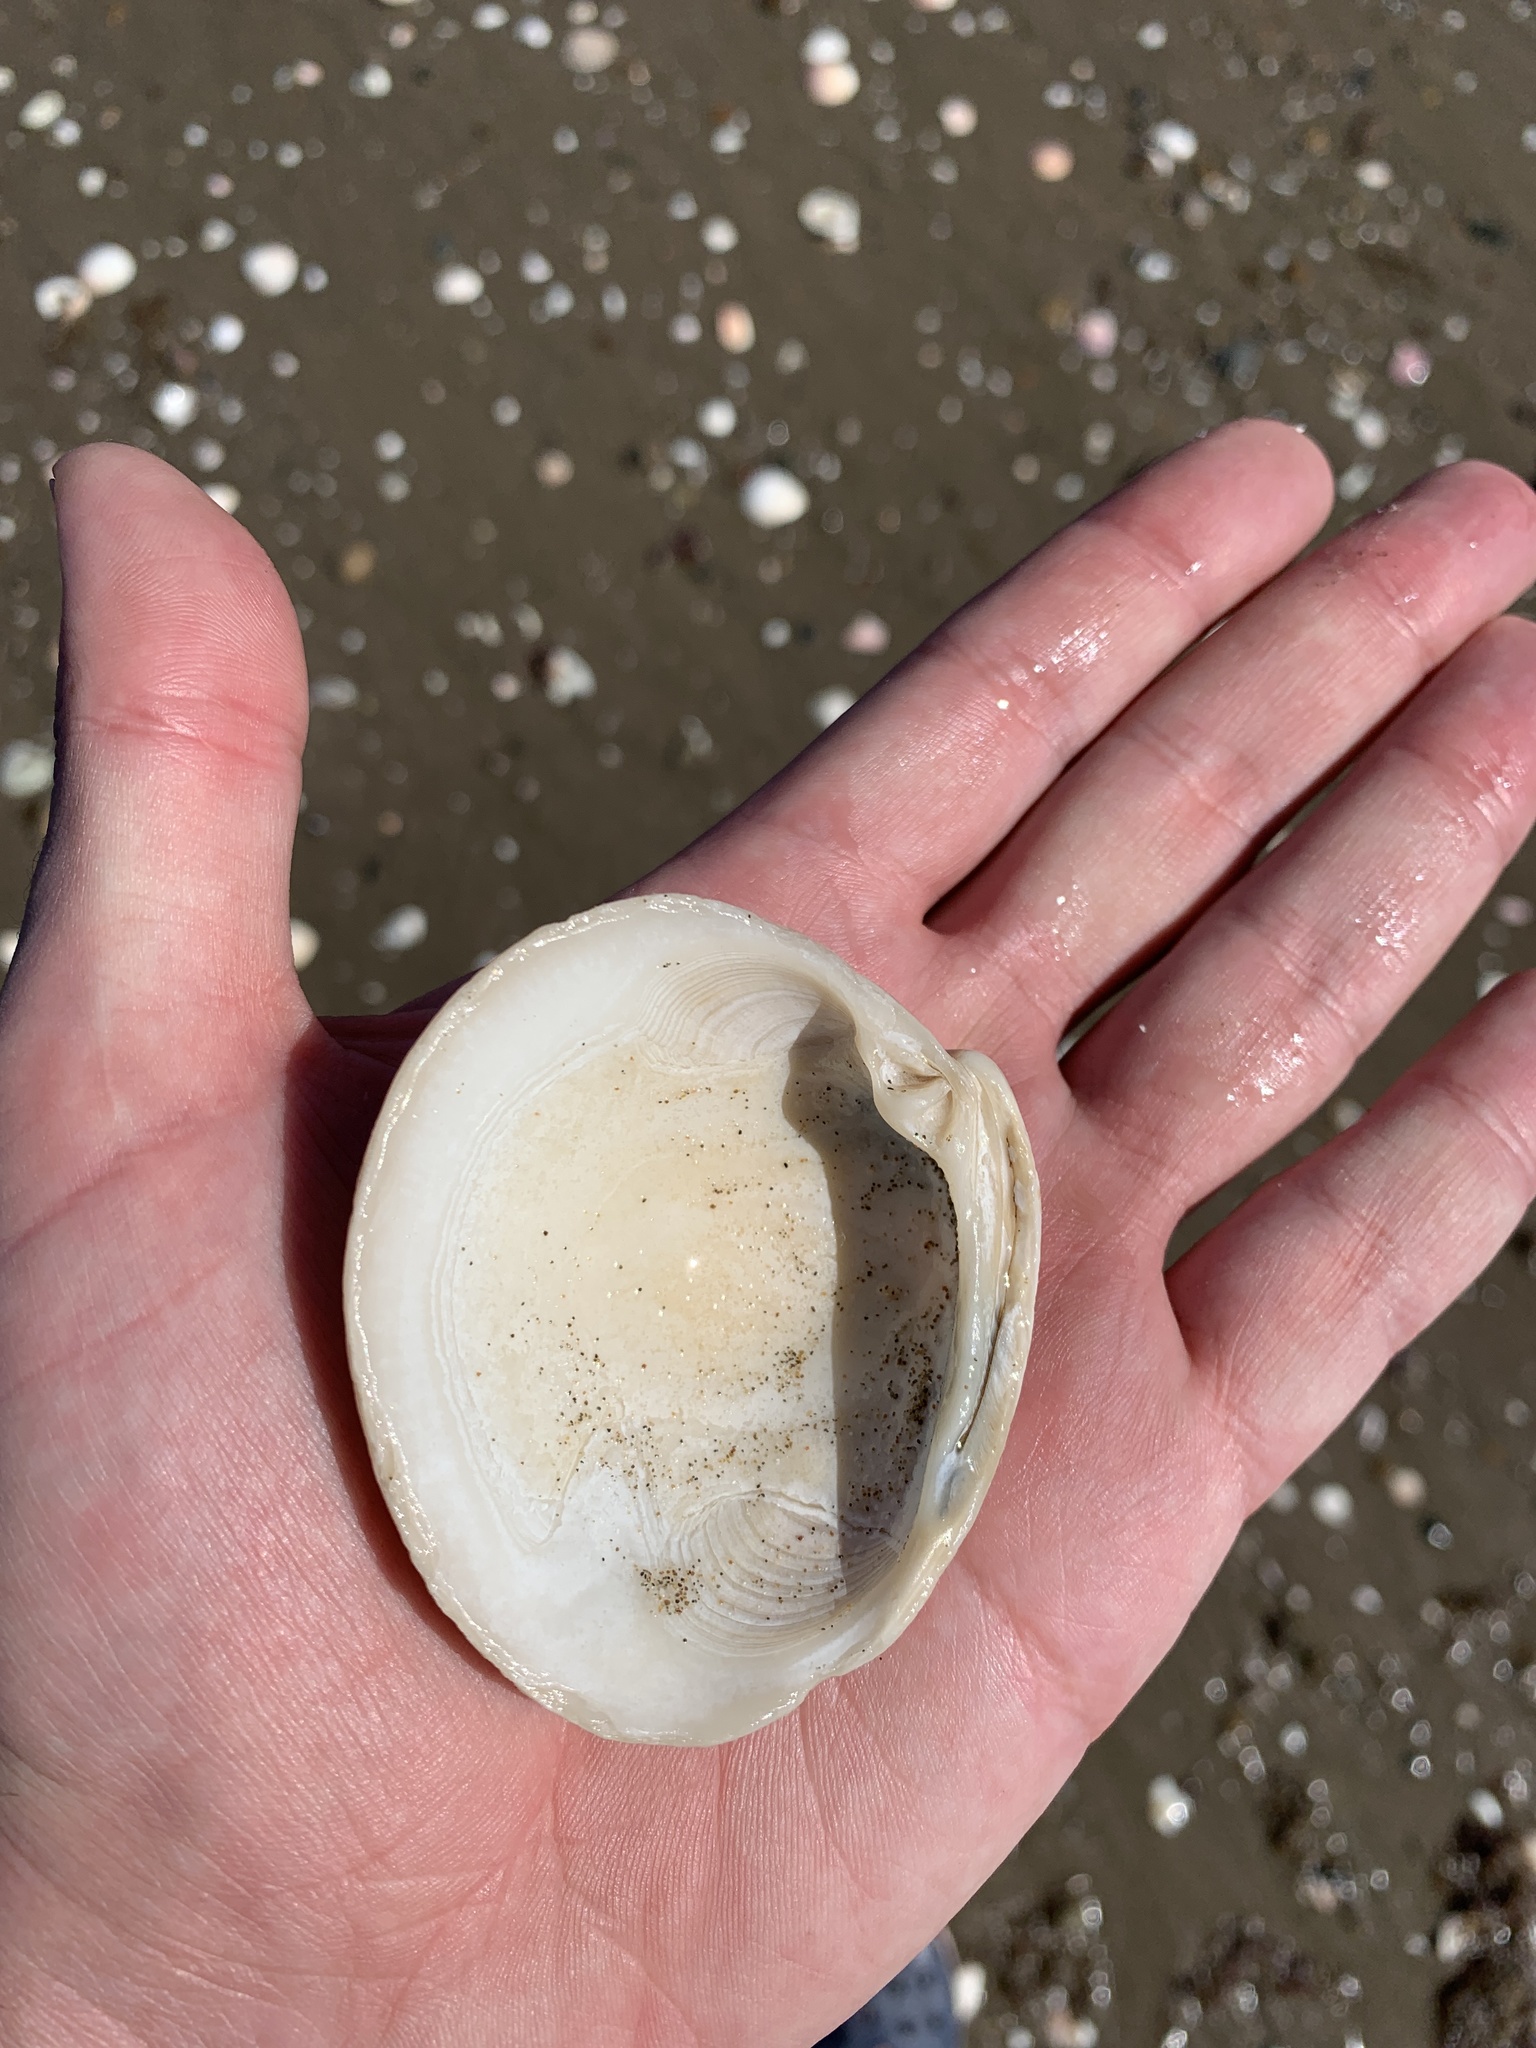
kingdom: Animalia
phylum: Mollusca
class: Bivalvia
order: Venerida
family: Veneridae
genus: Ameghinomya
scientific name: Ameghinomya antiqua
